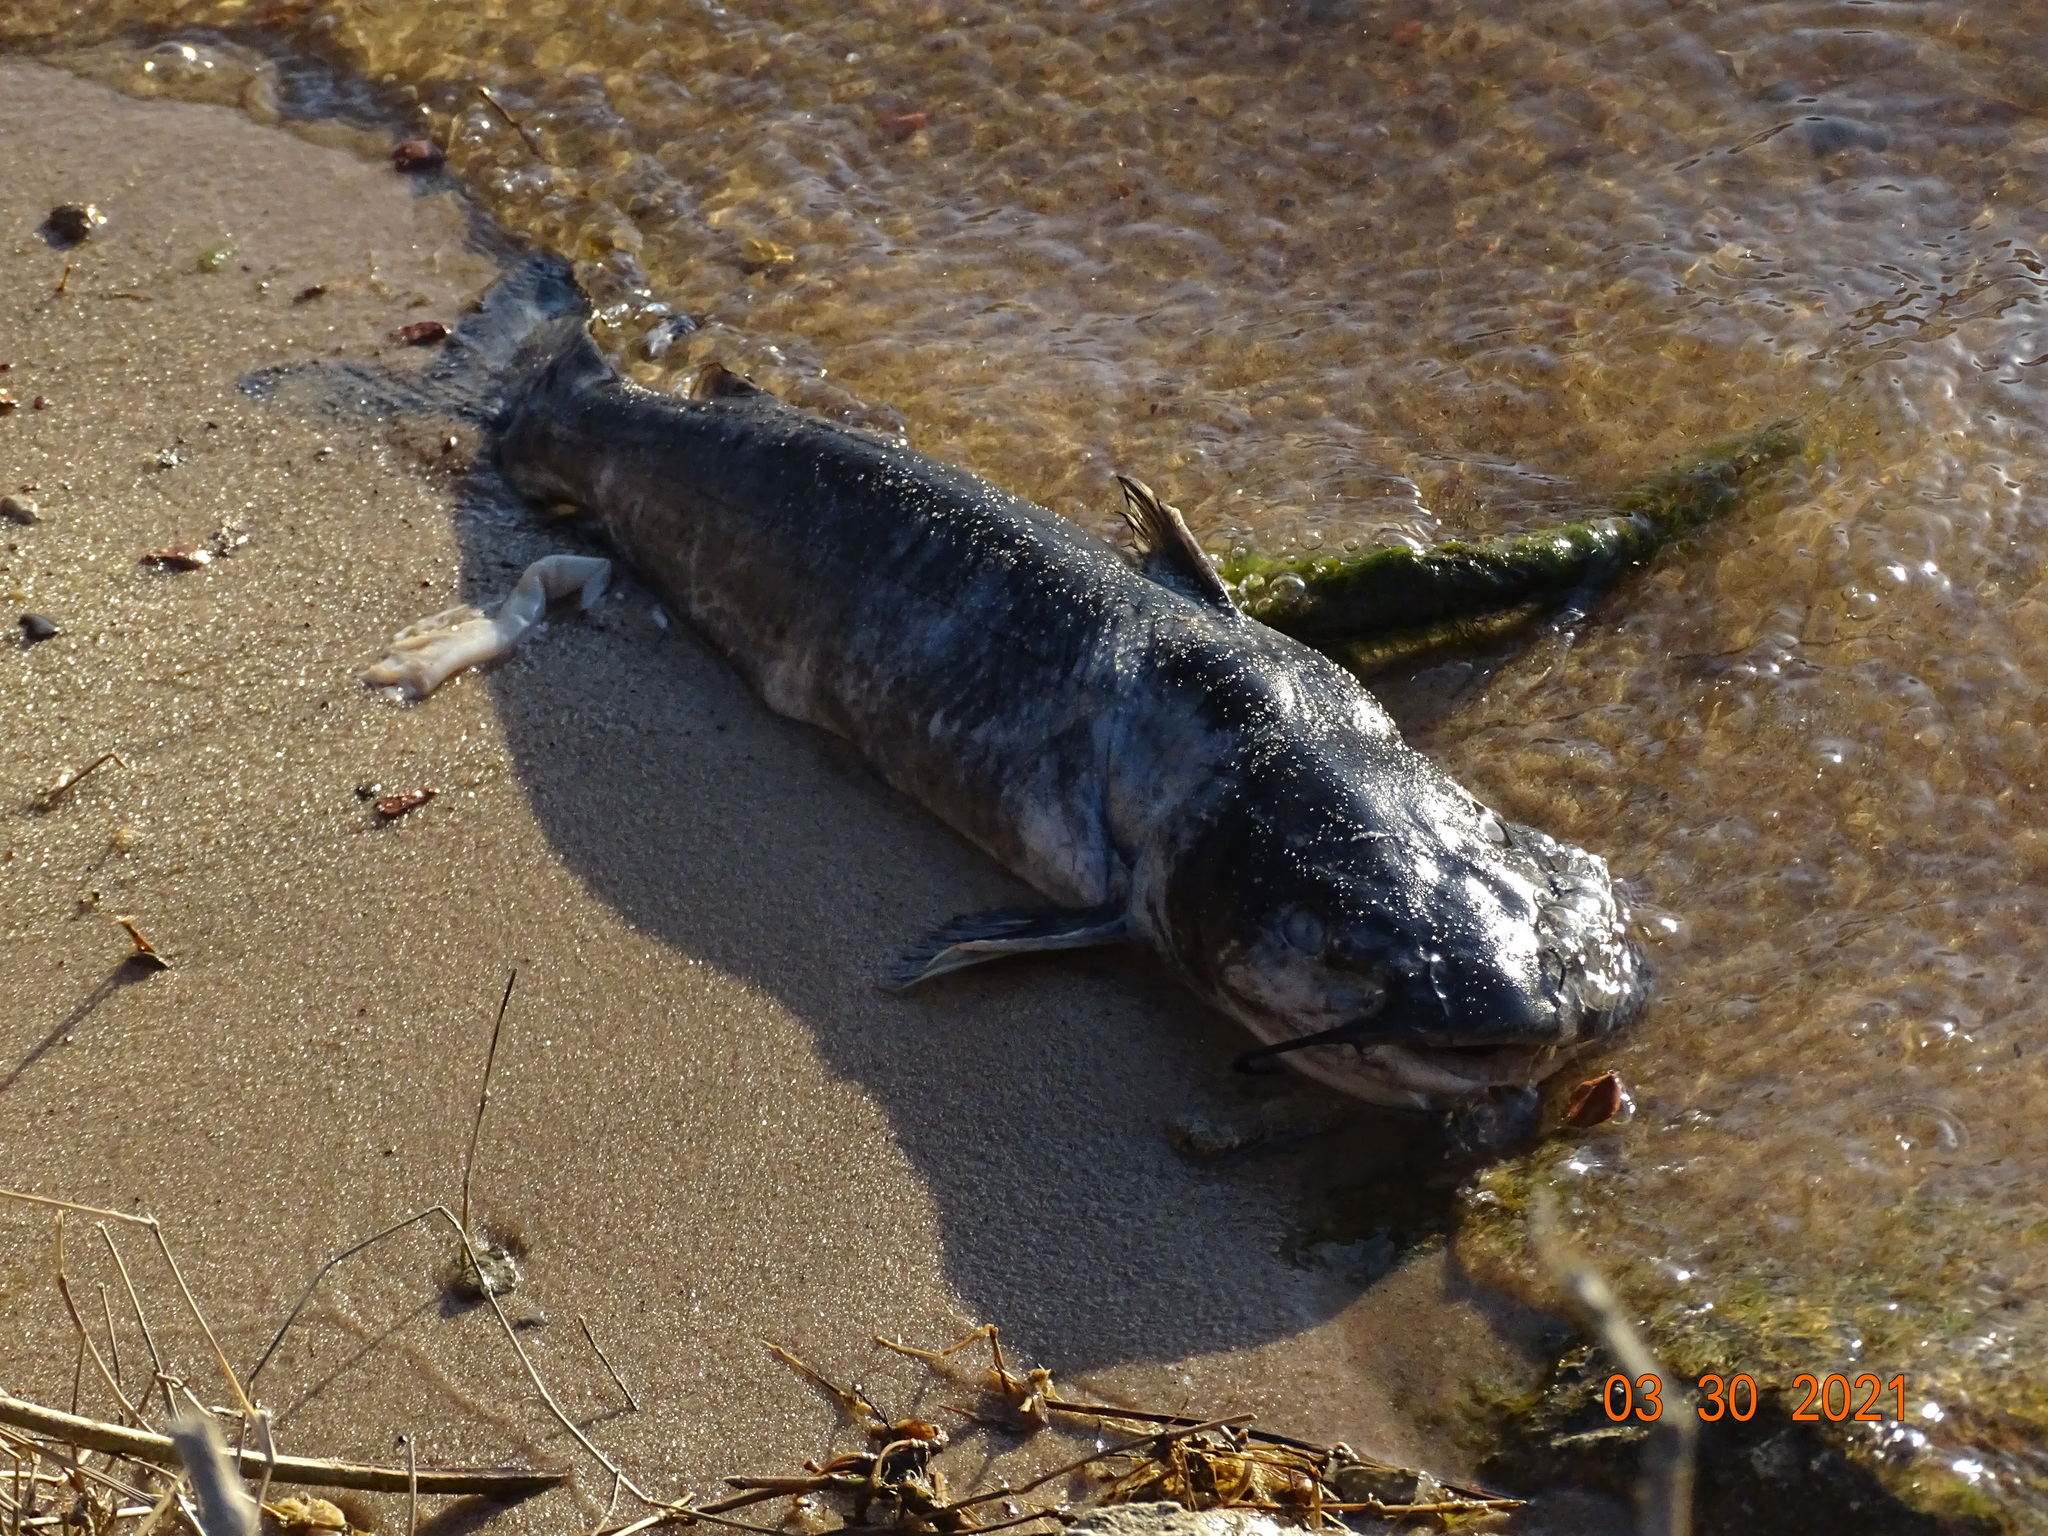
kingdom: Animalia
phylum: Chordata
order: Siluriformes
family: Ictaluridae
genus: Ictalurus
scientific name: Ictalurus punctatus
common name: Channel catfish
